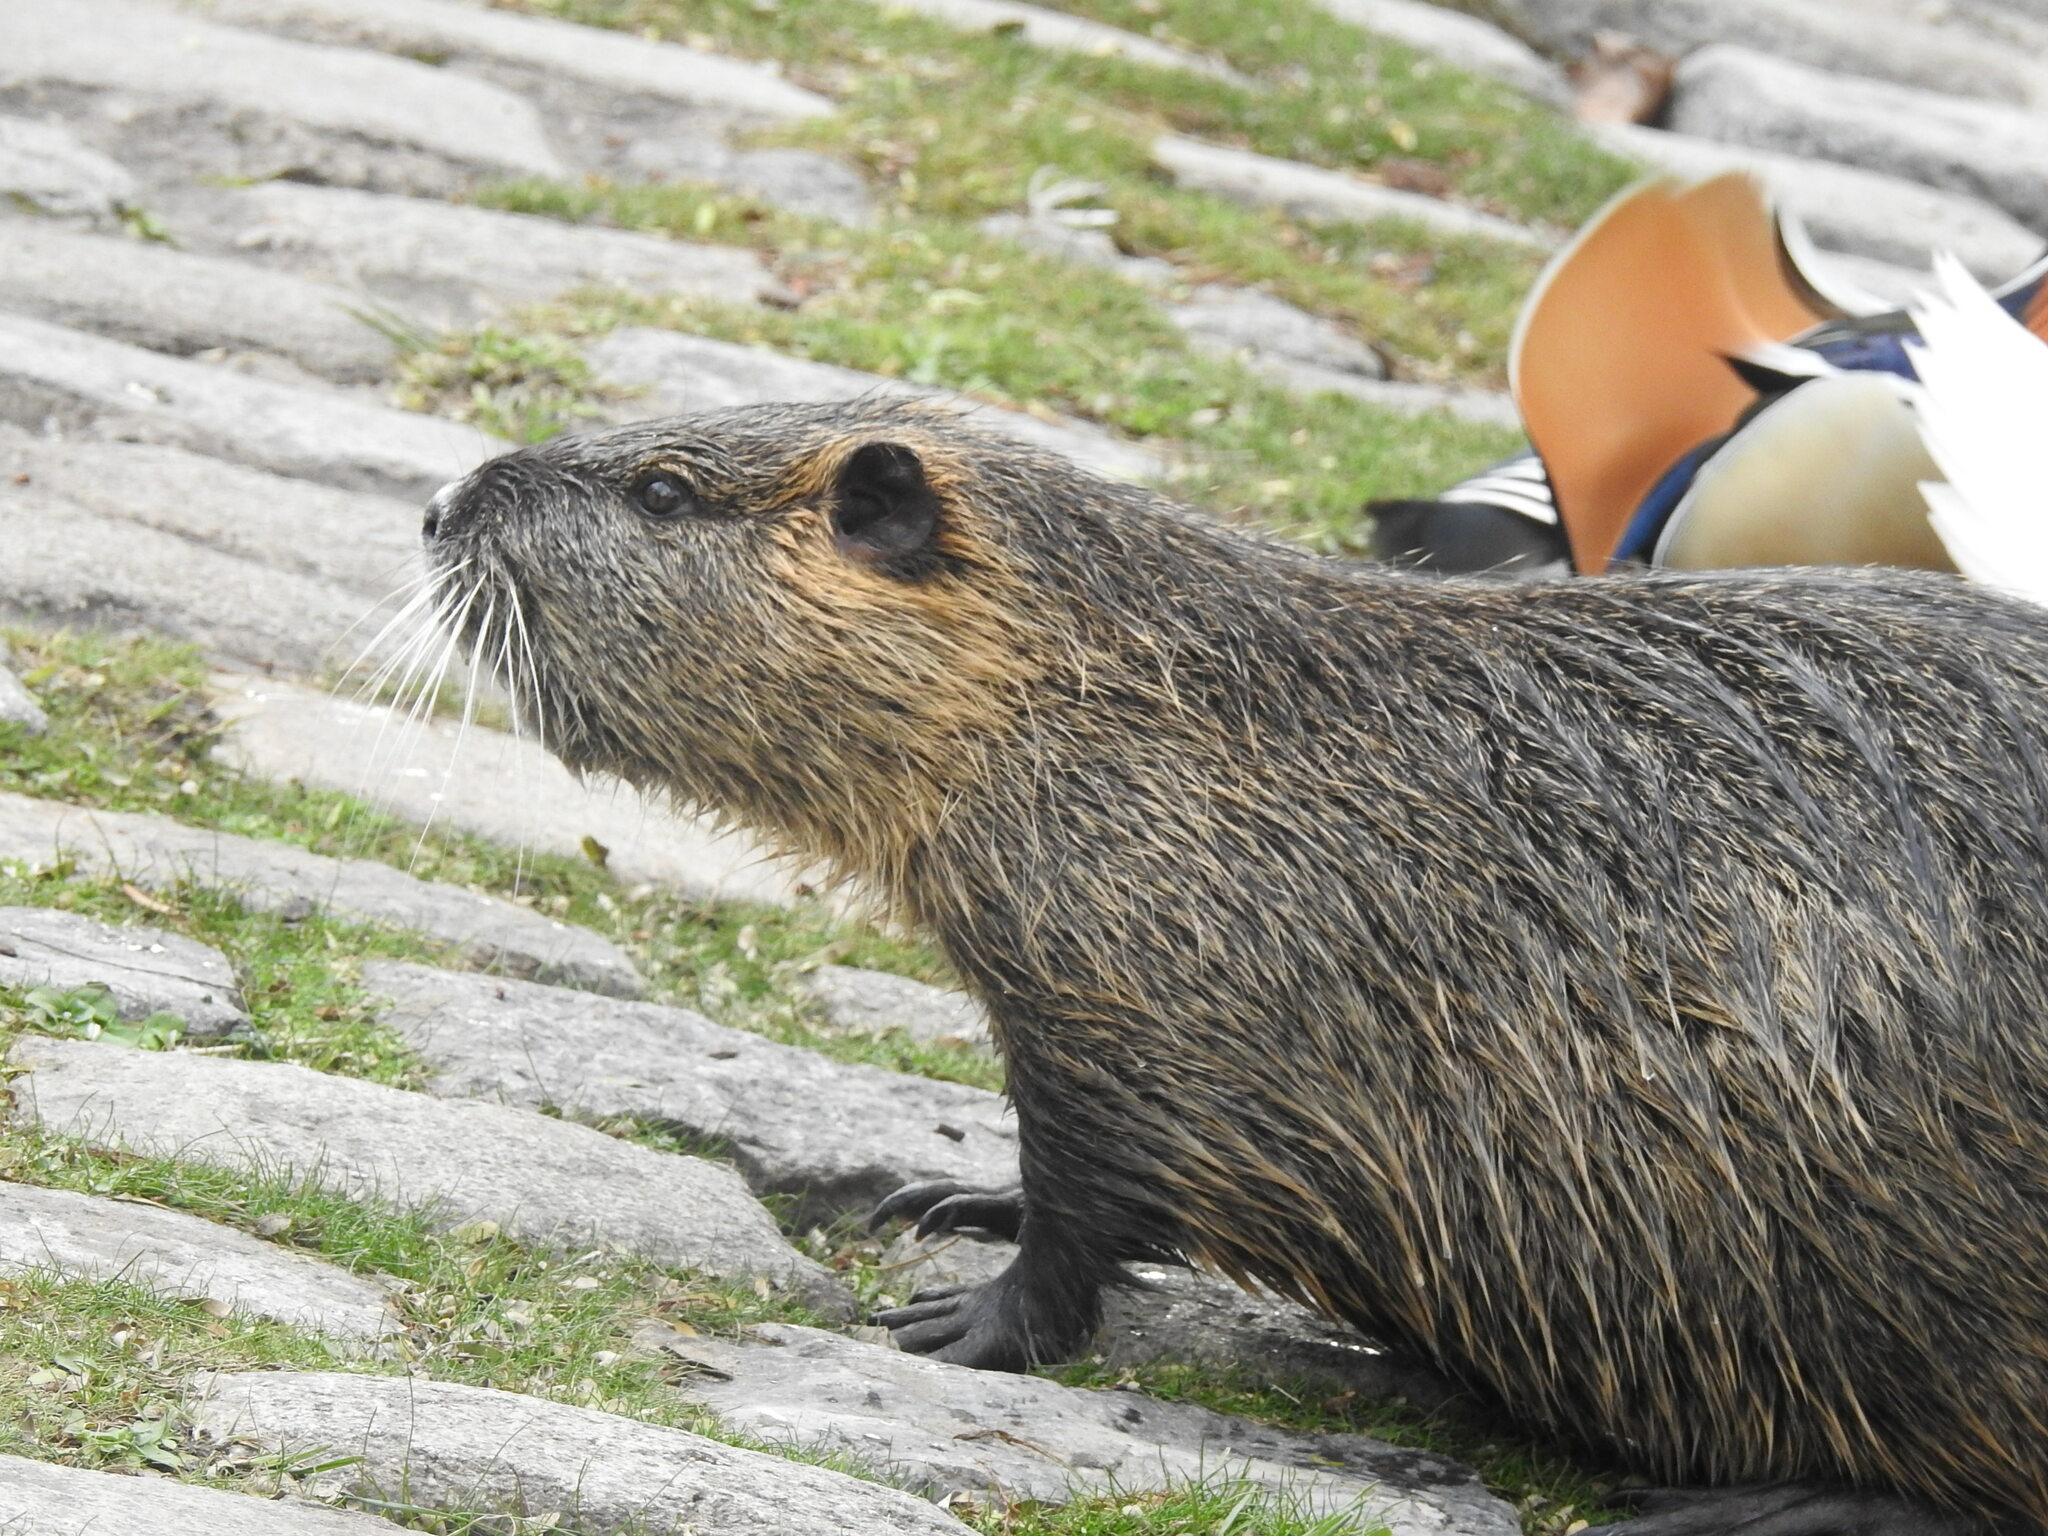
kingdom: Animalia
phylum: Chordata
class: Mammalia
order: Rodentia
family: Myocastoridae
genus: Myocastor
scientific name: Myocastor coypus
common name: Coypu
